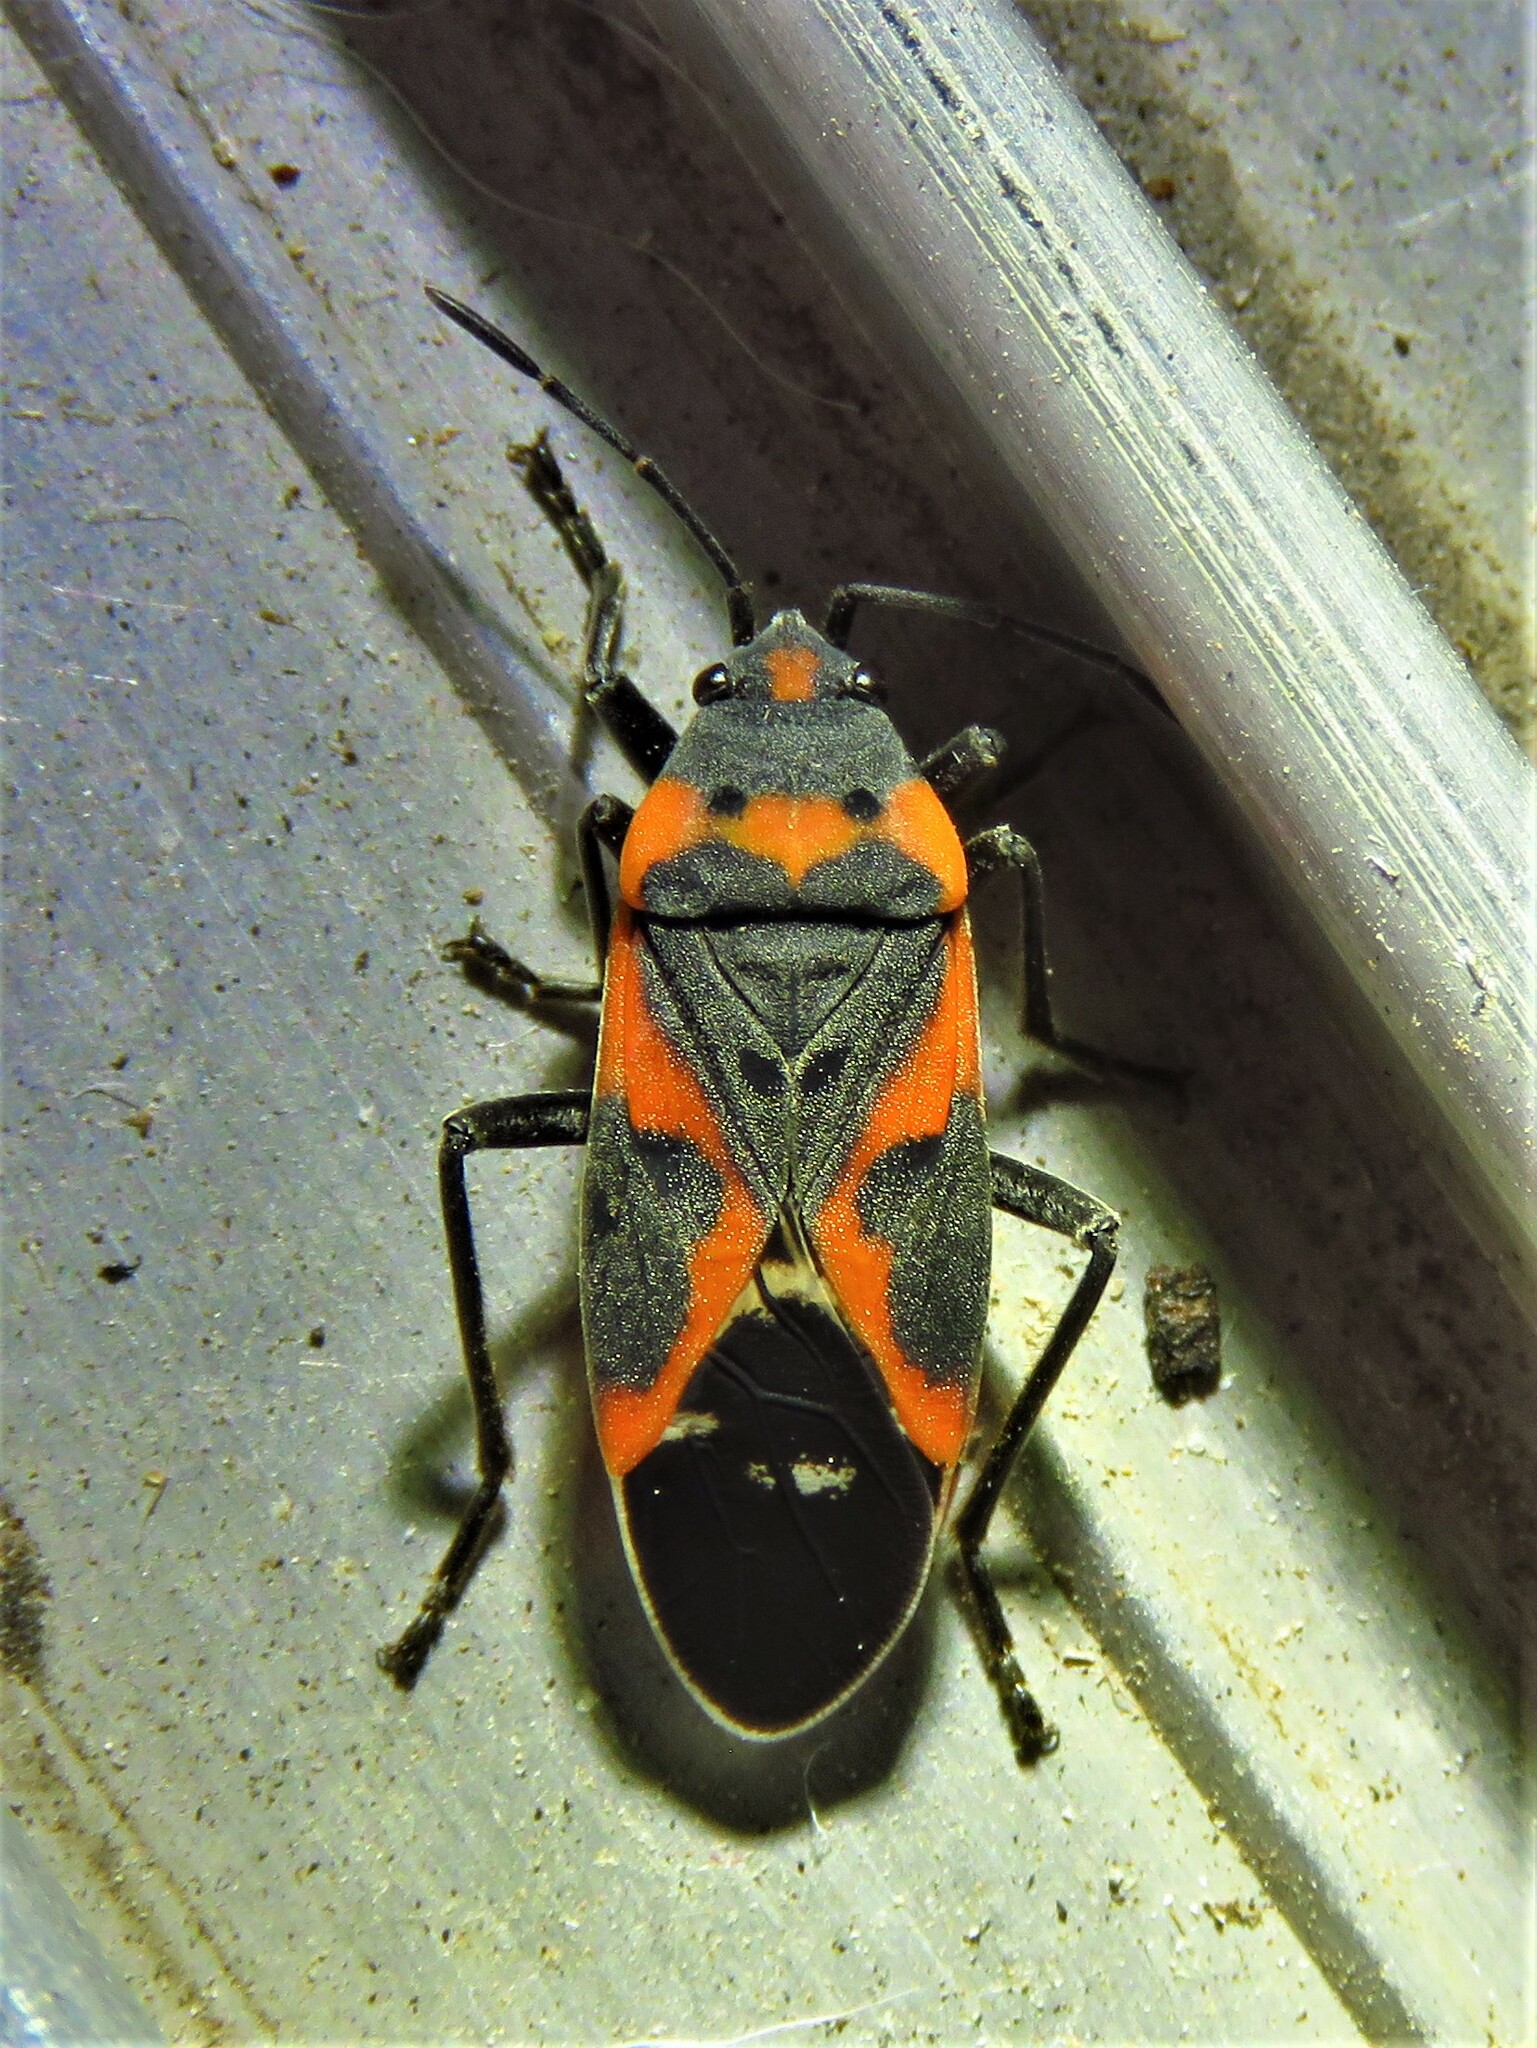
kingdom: Animalia
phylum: Arthropoda
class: Insecta
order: Hemiptera
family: Lygaeidae
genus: Lygaeus
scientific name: Lygaeus kalmii
